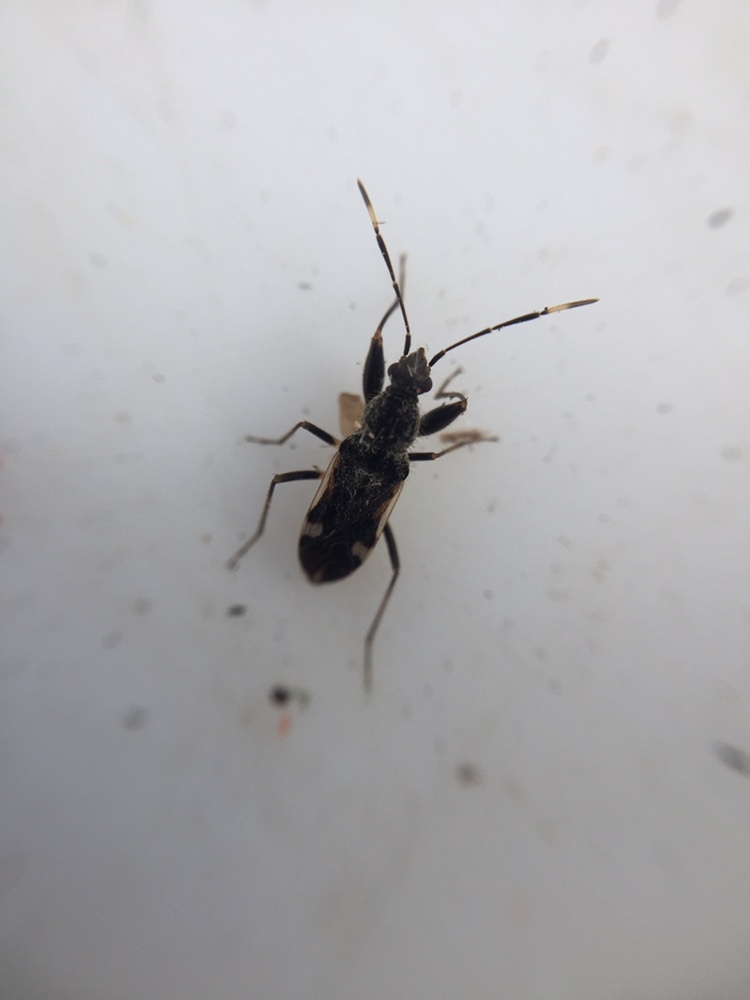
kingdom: Animalia
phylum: Arthropoda
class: Insecta
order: Hemiptera
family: Rhyparochromidae
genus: Horridipamera
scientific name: Horridipamera robusta
